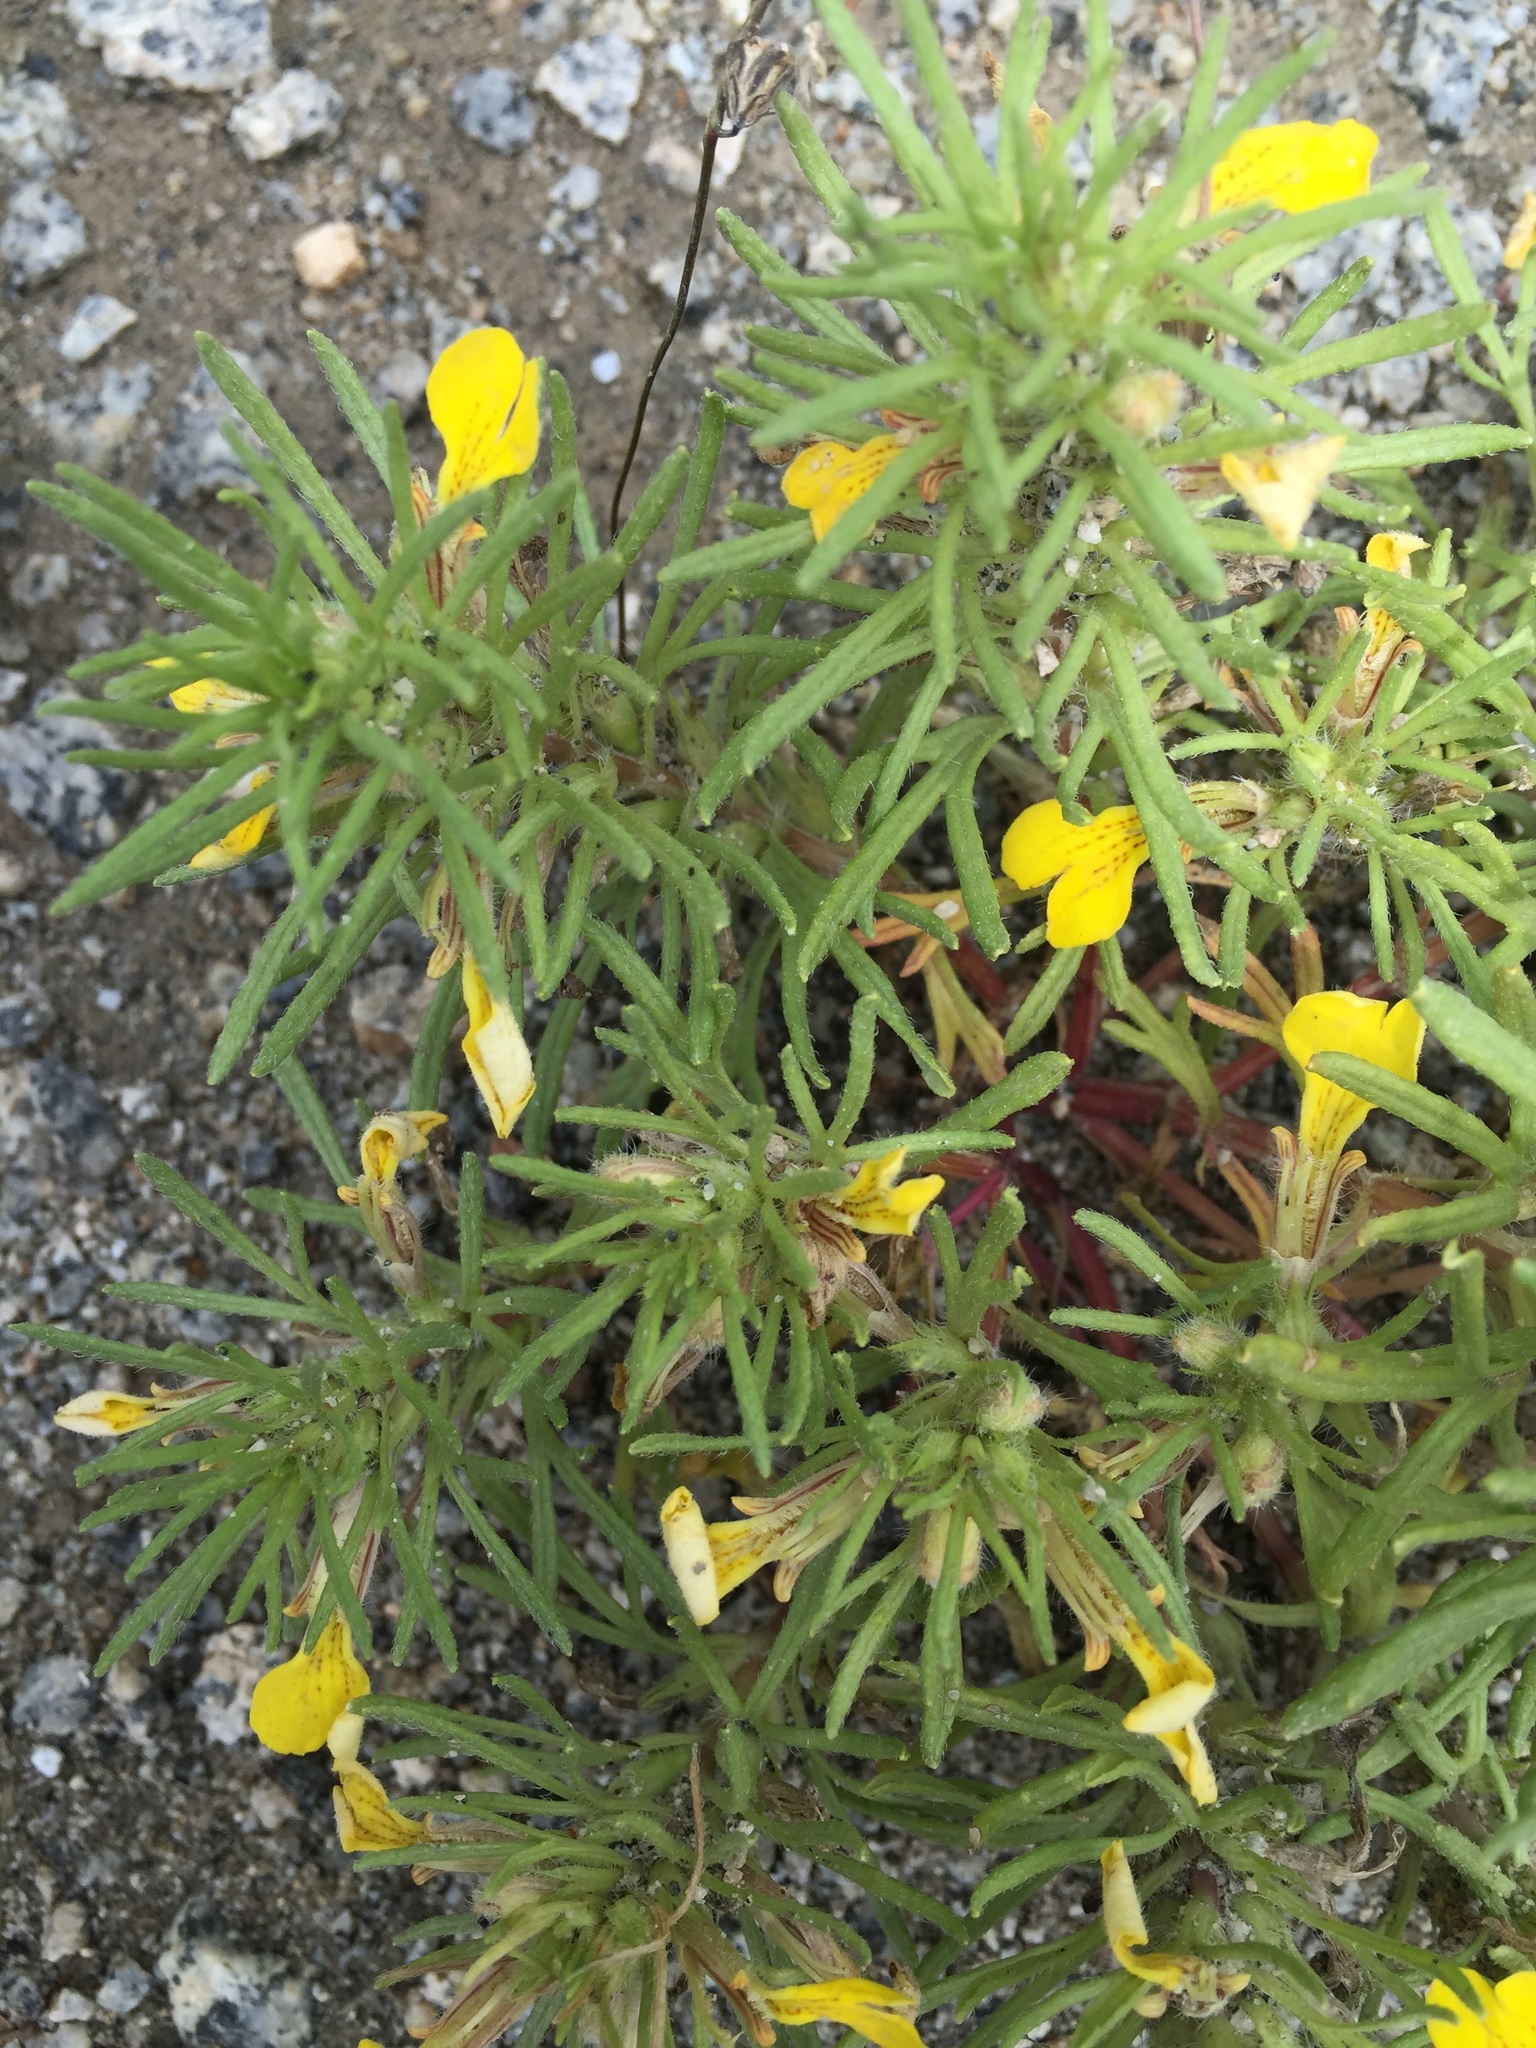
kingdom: Plantae
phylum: Tracheophyta
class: Magnoliopsida
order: Lamiales
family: Lamiaceae
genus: Ajuga
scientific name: Ajuga chamaepitys
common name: Ground-pine
